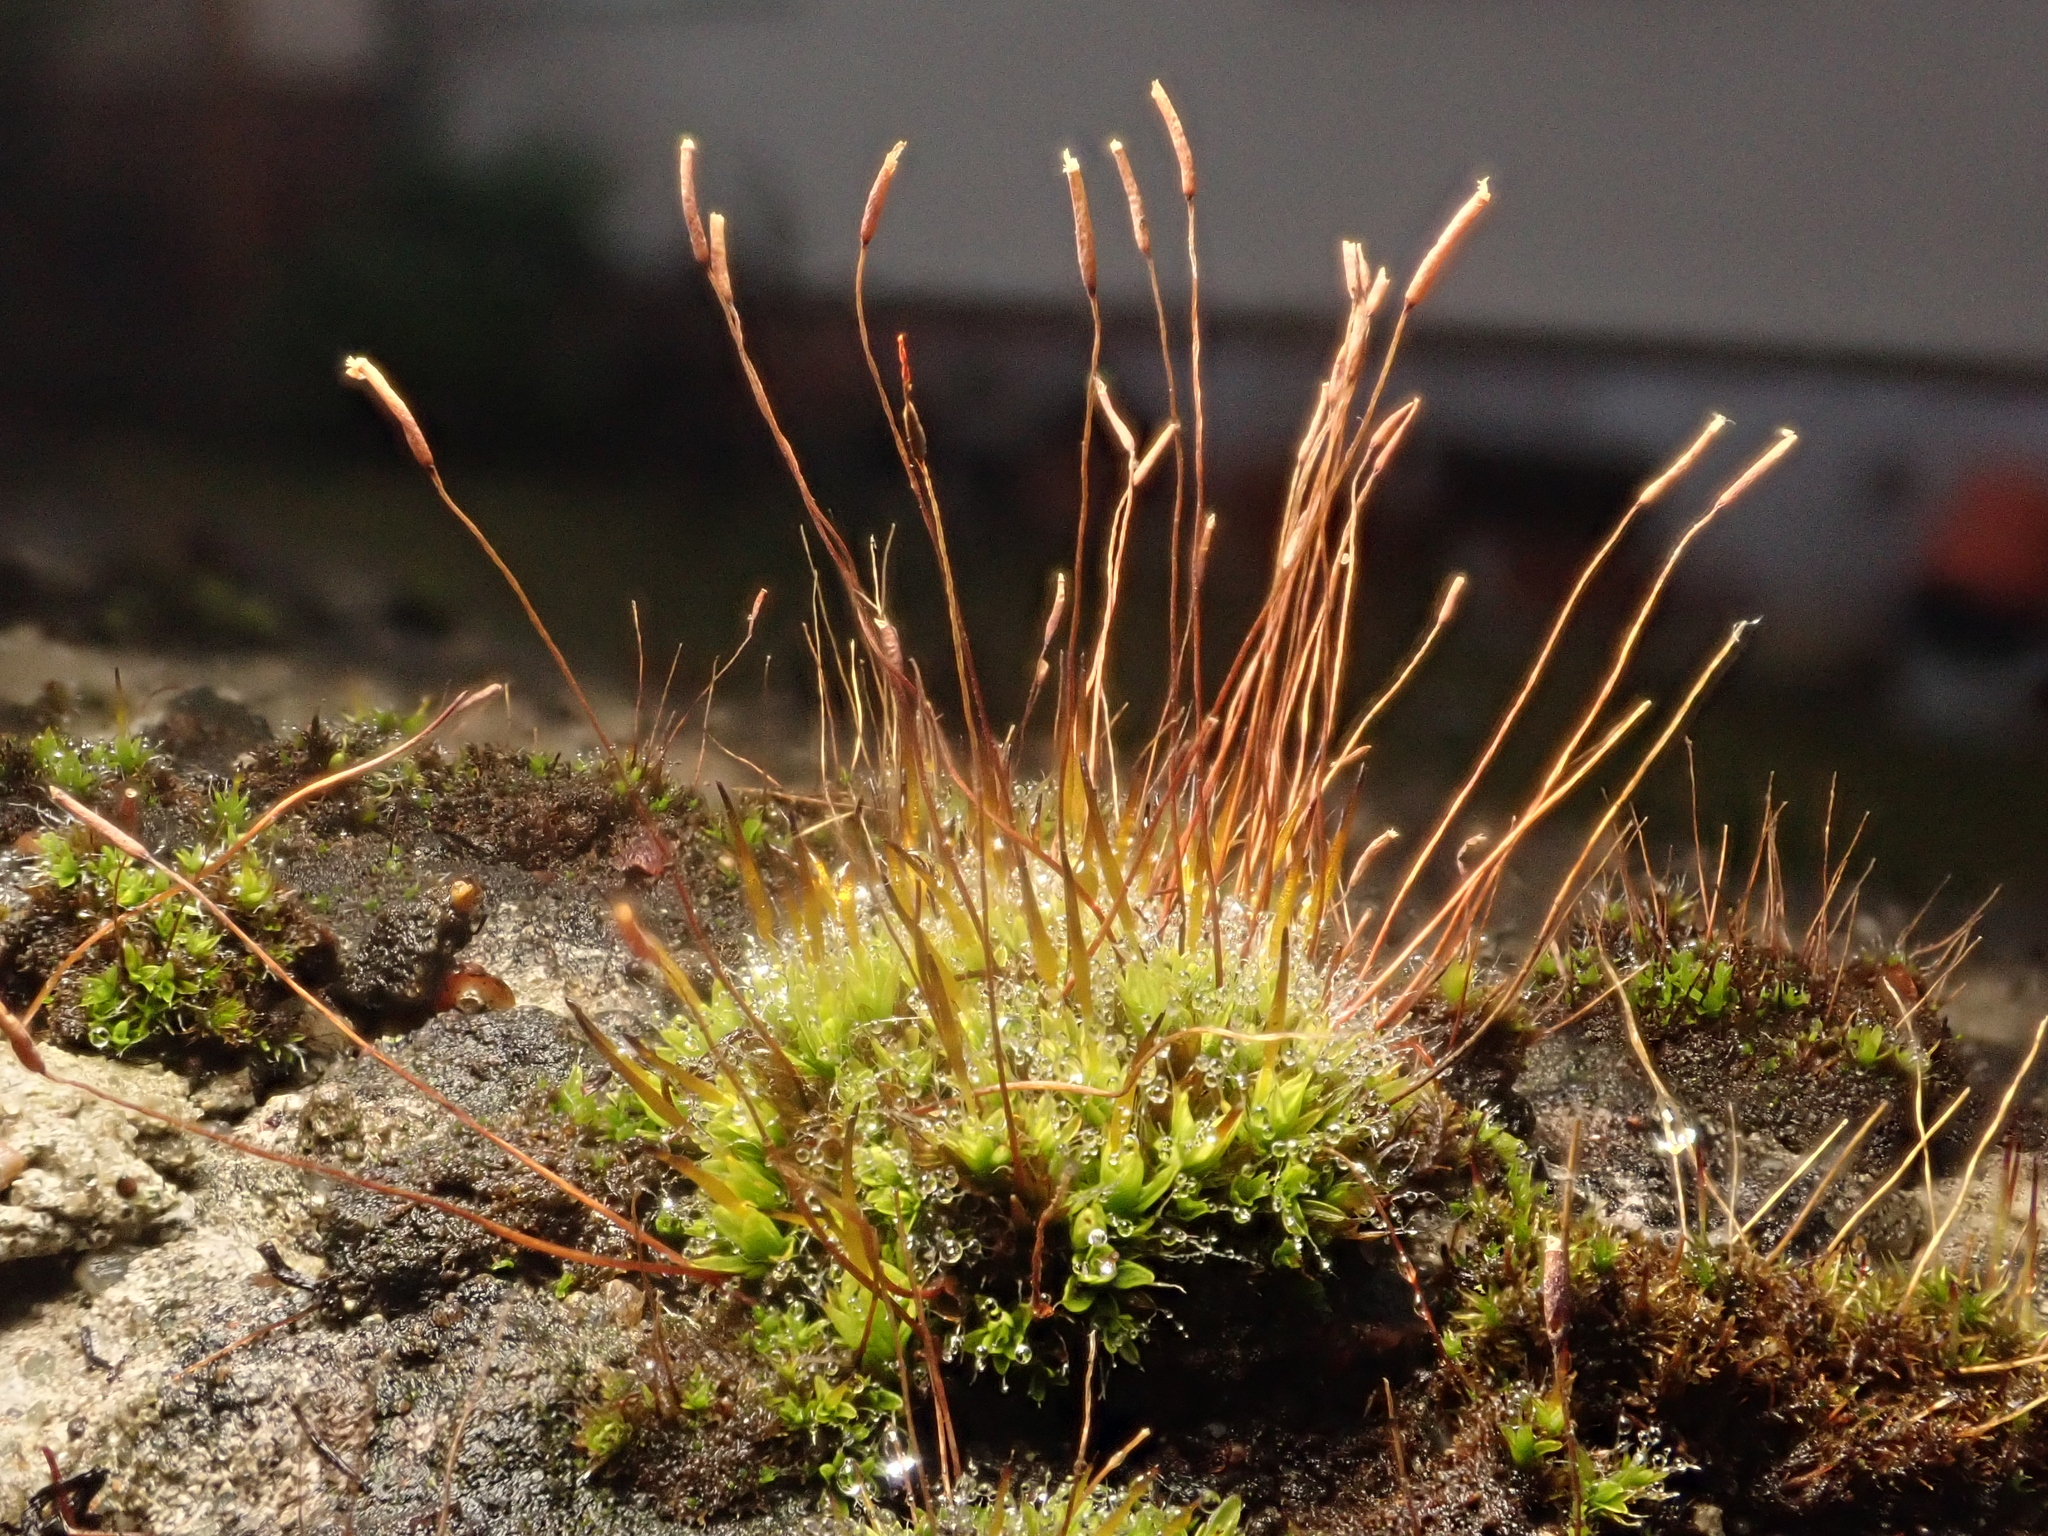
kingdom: Plantae
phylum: Bryophyta
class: Bryopsida
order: Pottiales
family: Pottiaceae
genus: Tortula
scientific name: Tortula muralis
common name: Wall screw-moss
